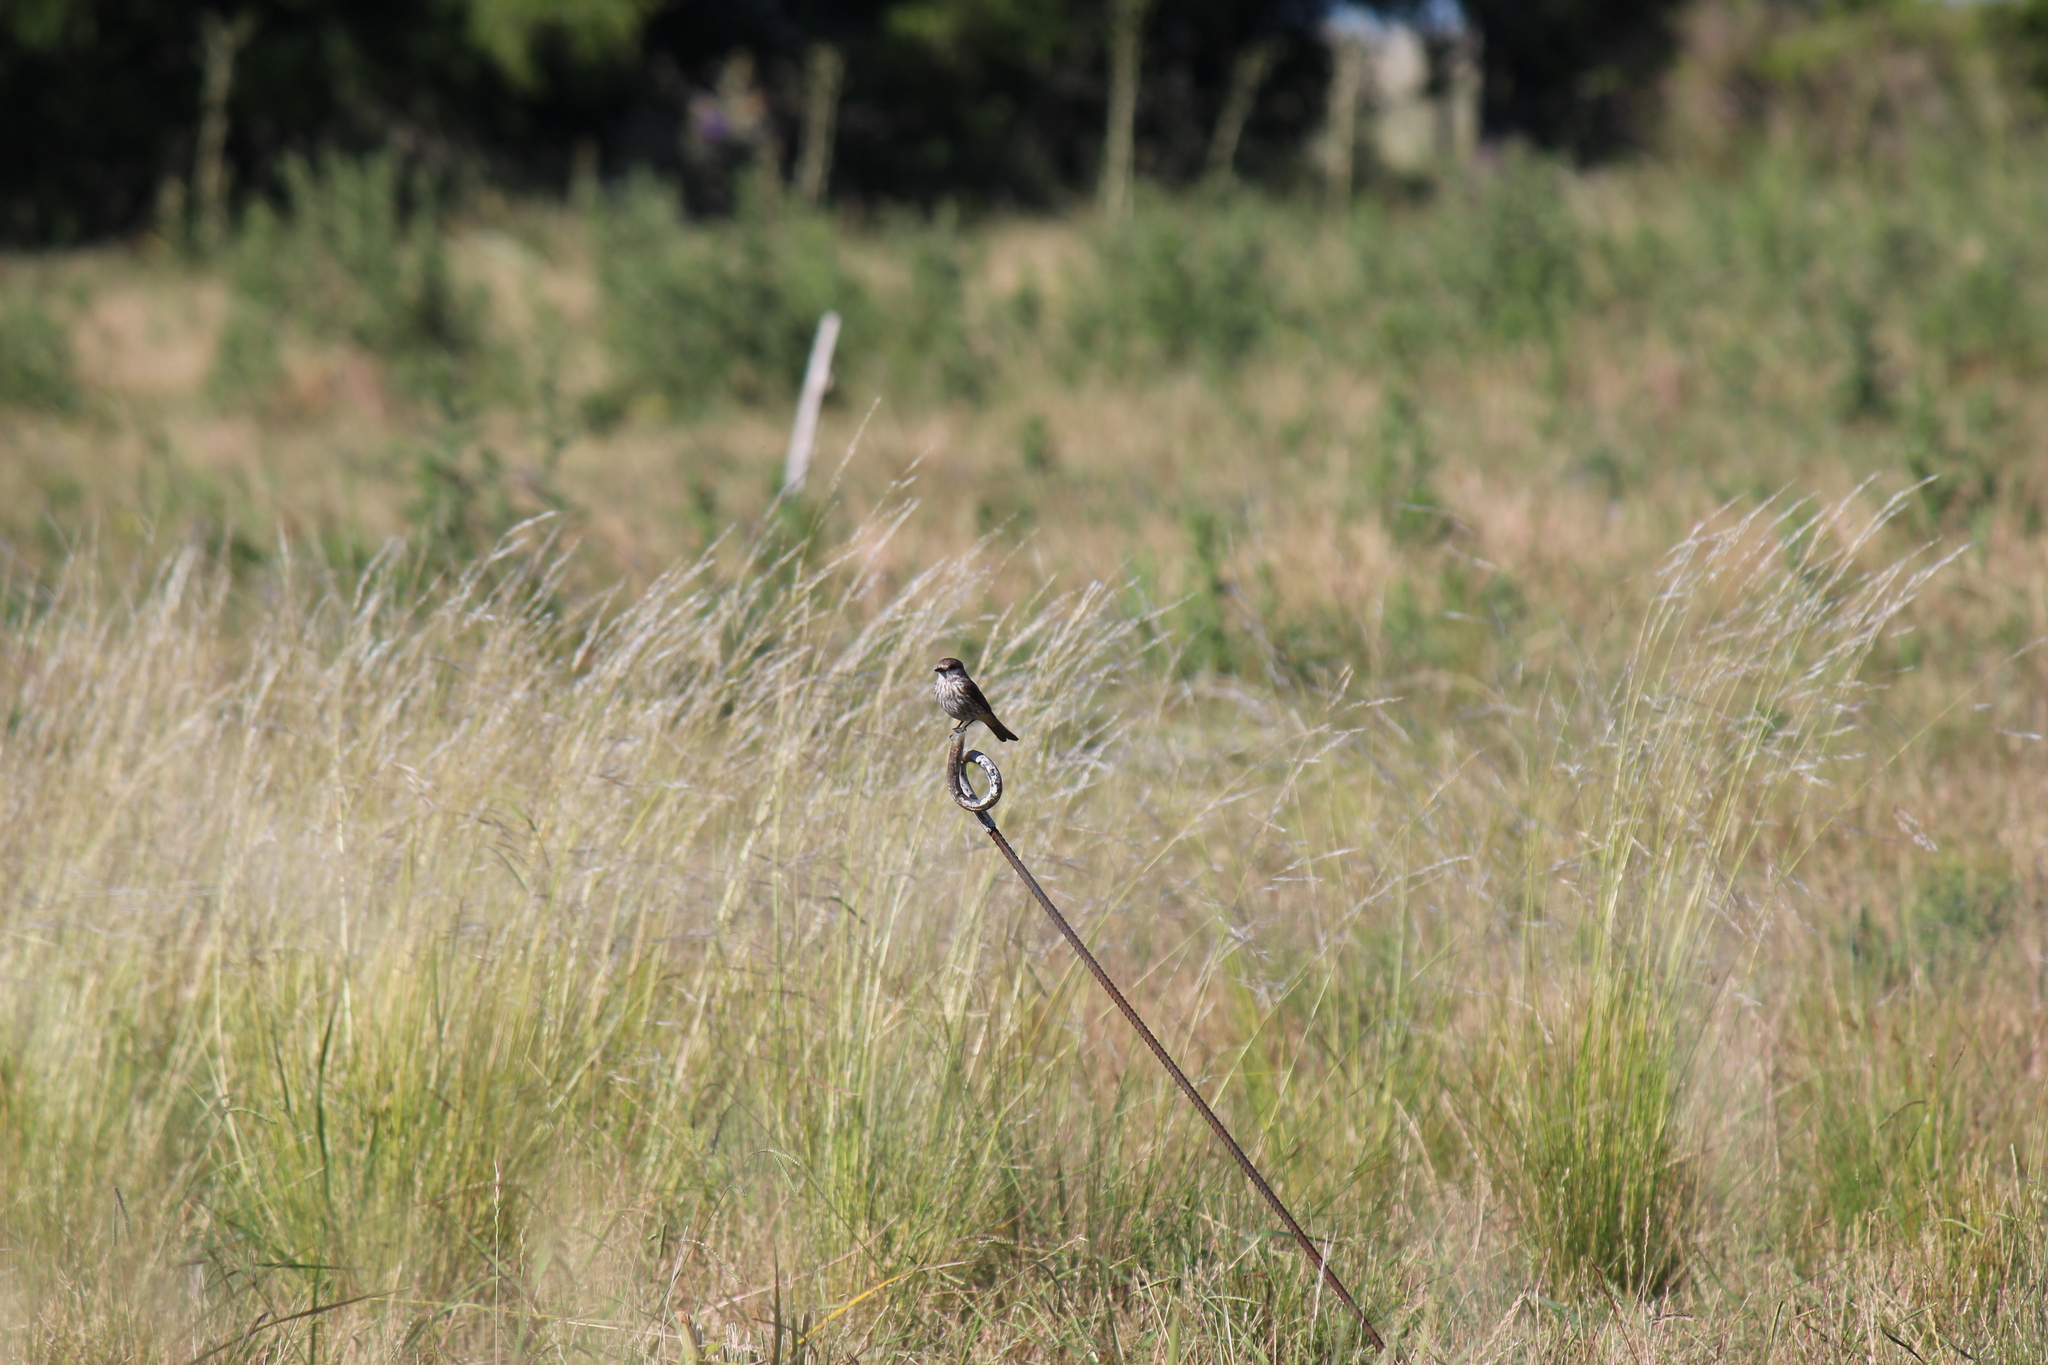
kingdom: Animalia
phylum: Chordata
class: Aves
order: Passeriformes
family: Tyrannidae
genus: Pyrocephalus
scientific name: Pyrocephalus rubinus
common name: Vermilion flycatcher
